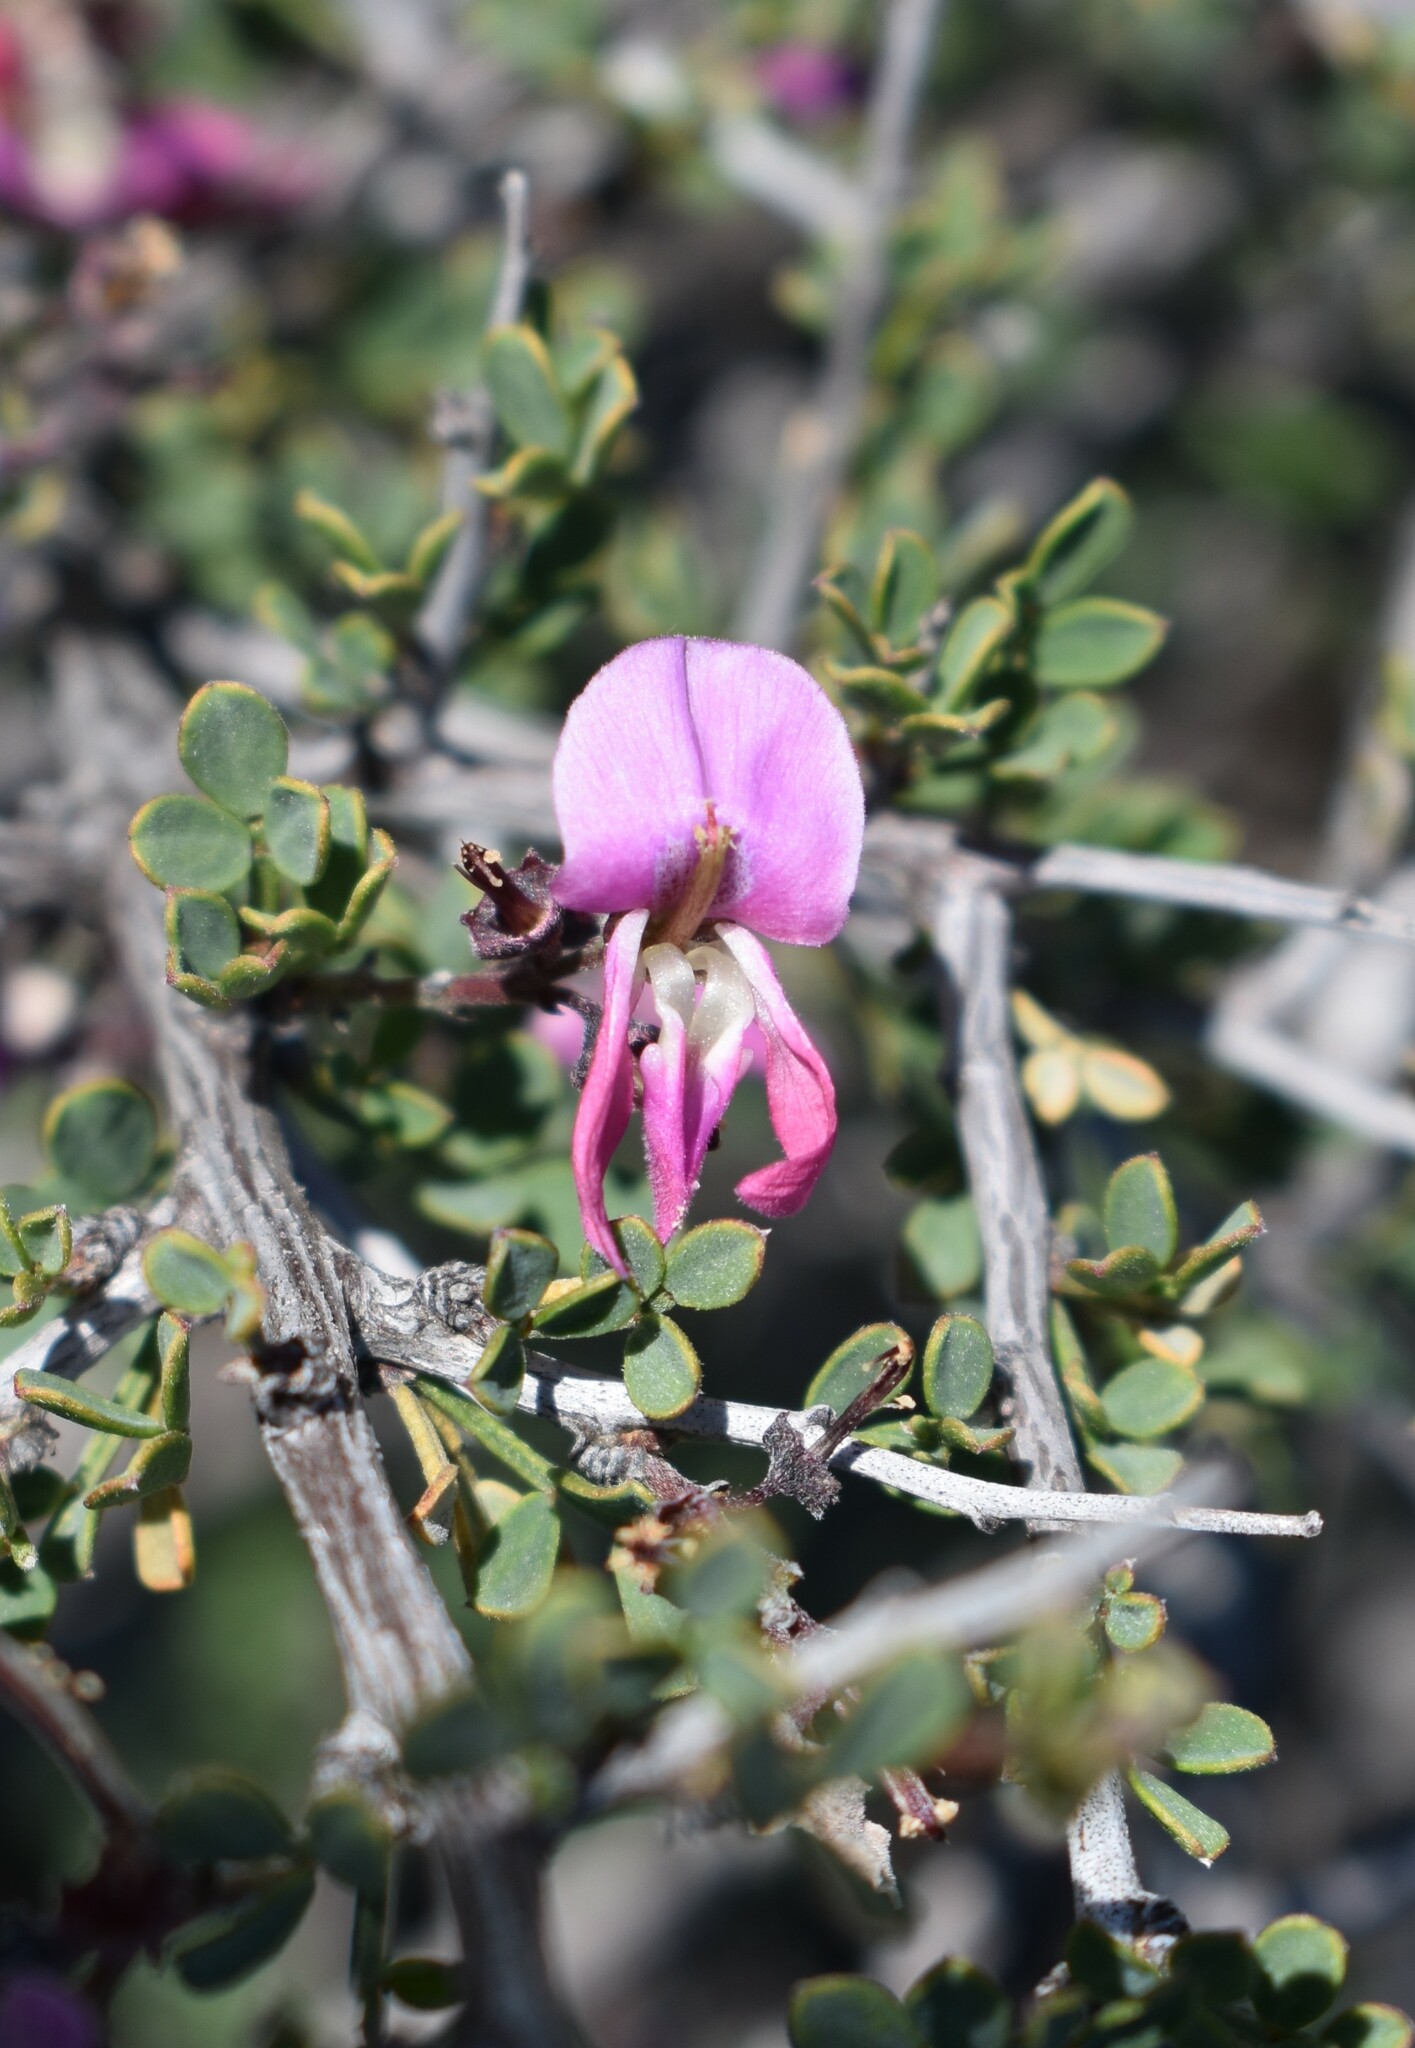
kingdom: Plantae
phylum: Tracheophyta
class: Magnoliopsida
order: Fabales
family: Fabaceae
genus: Indigofera
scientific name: Indigofera nigromontana
